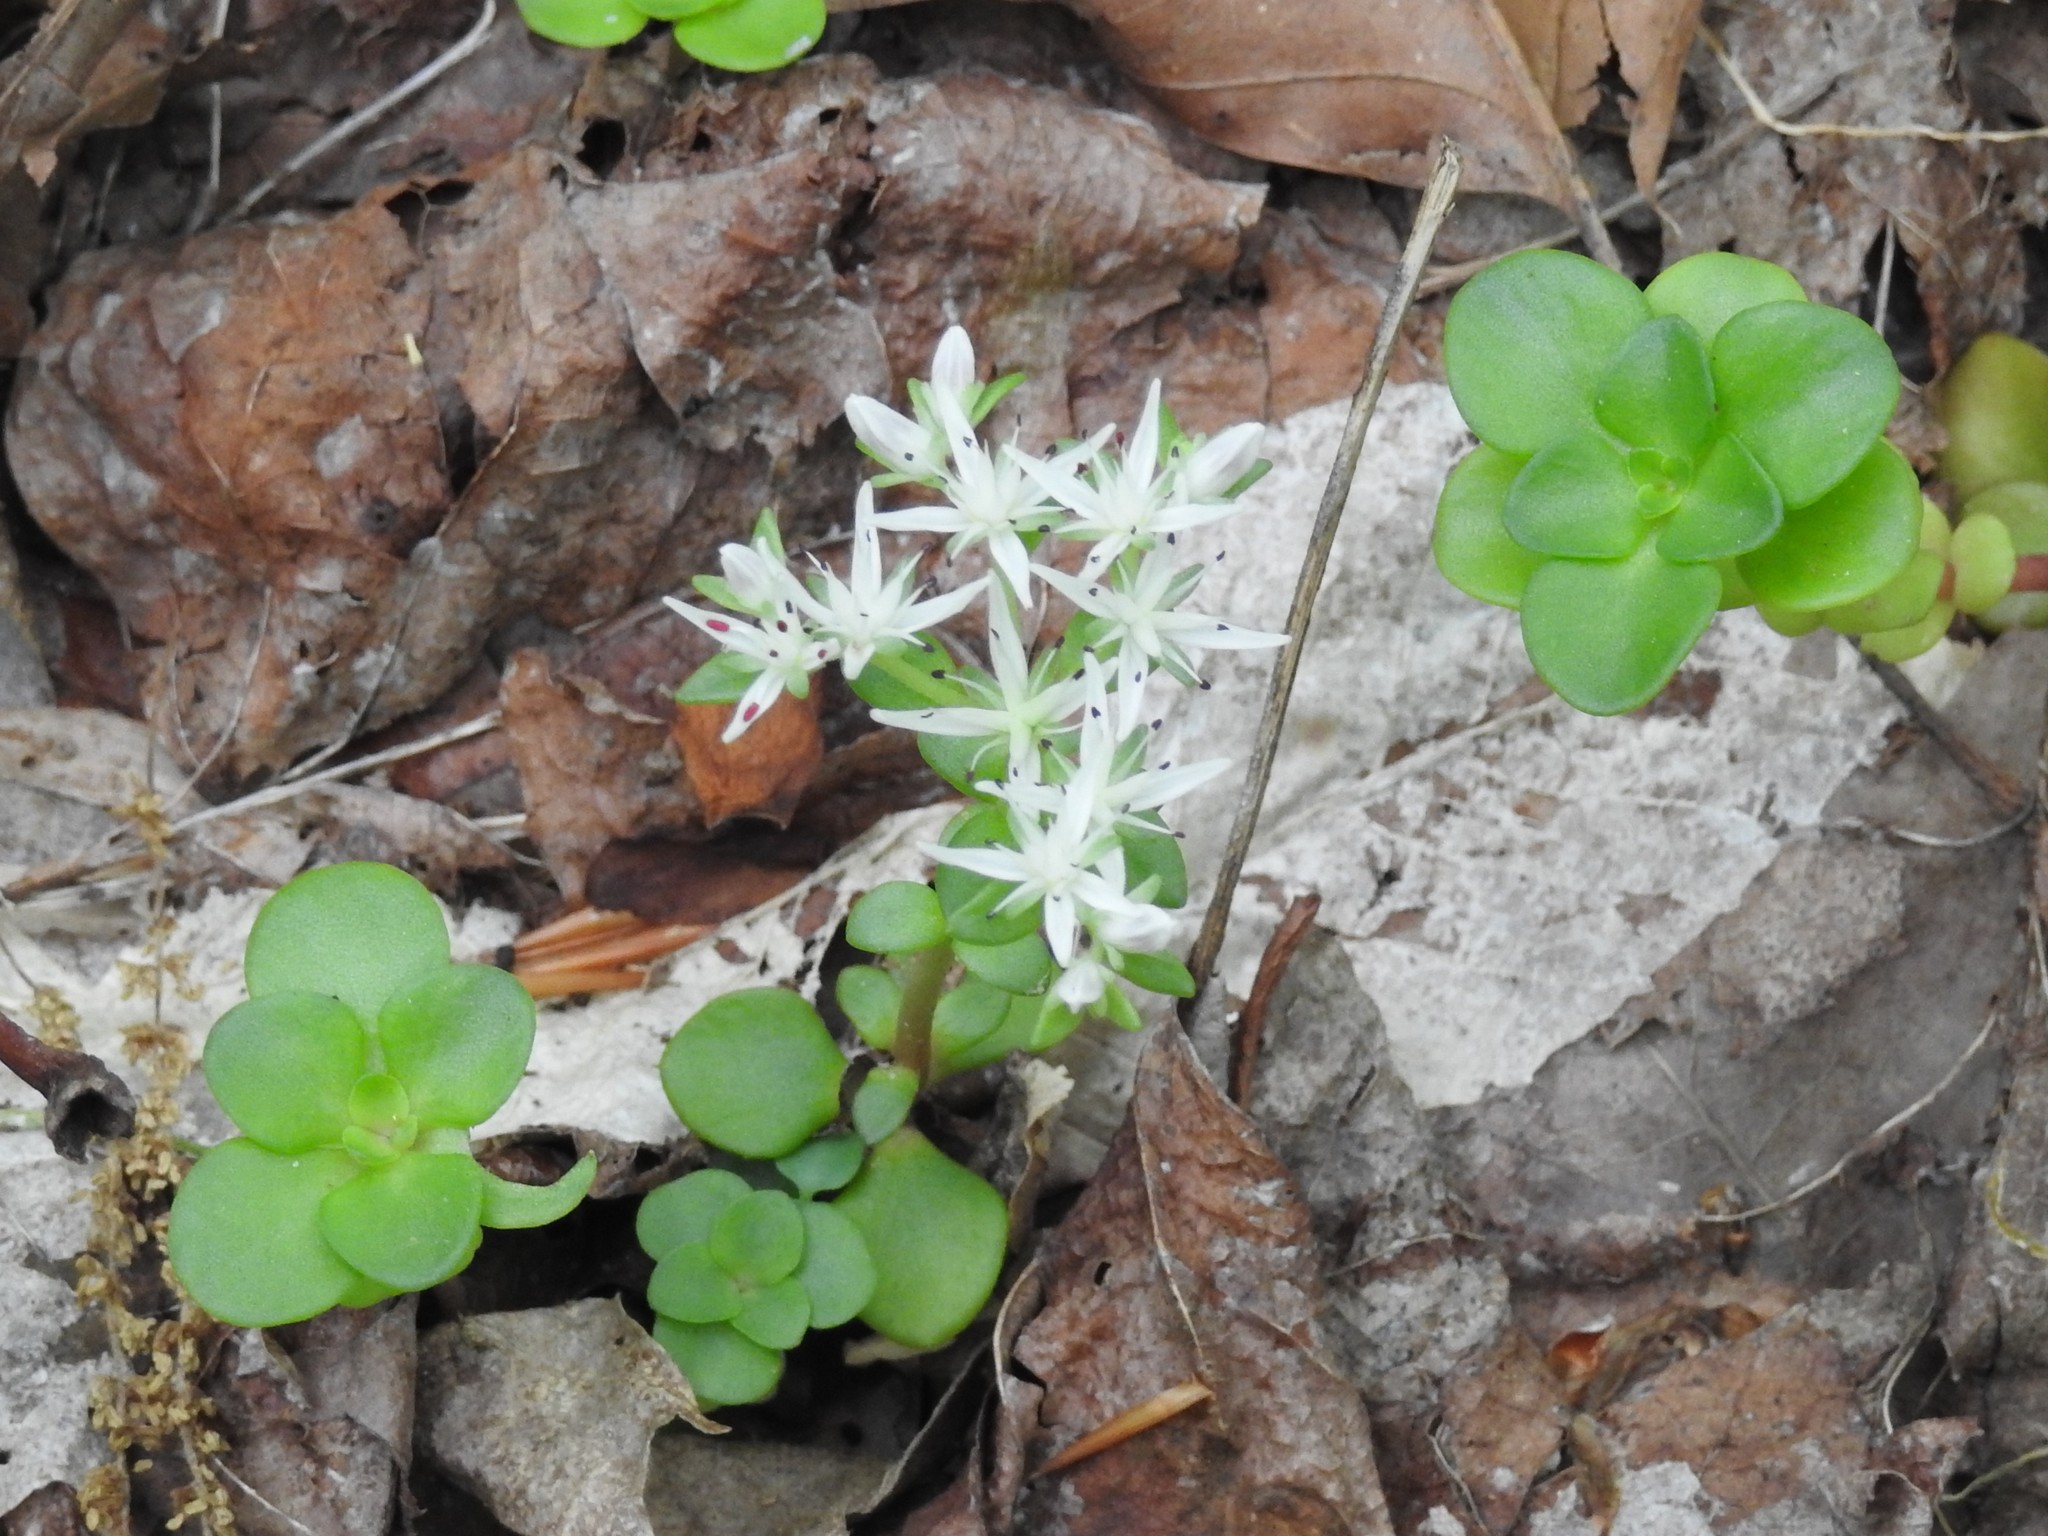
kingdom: Plantae
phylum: Tracheophyta
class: Magnoliopsida
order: Saxifragales
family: Crassulaceae
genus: Sedum
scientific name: Sedum ternatum
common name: Wild stonecrop
